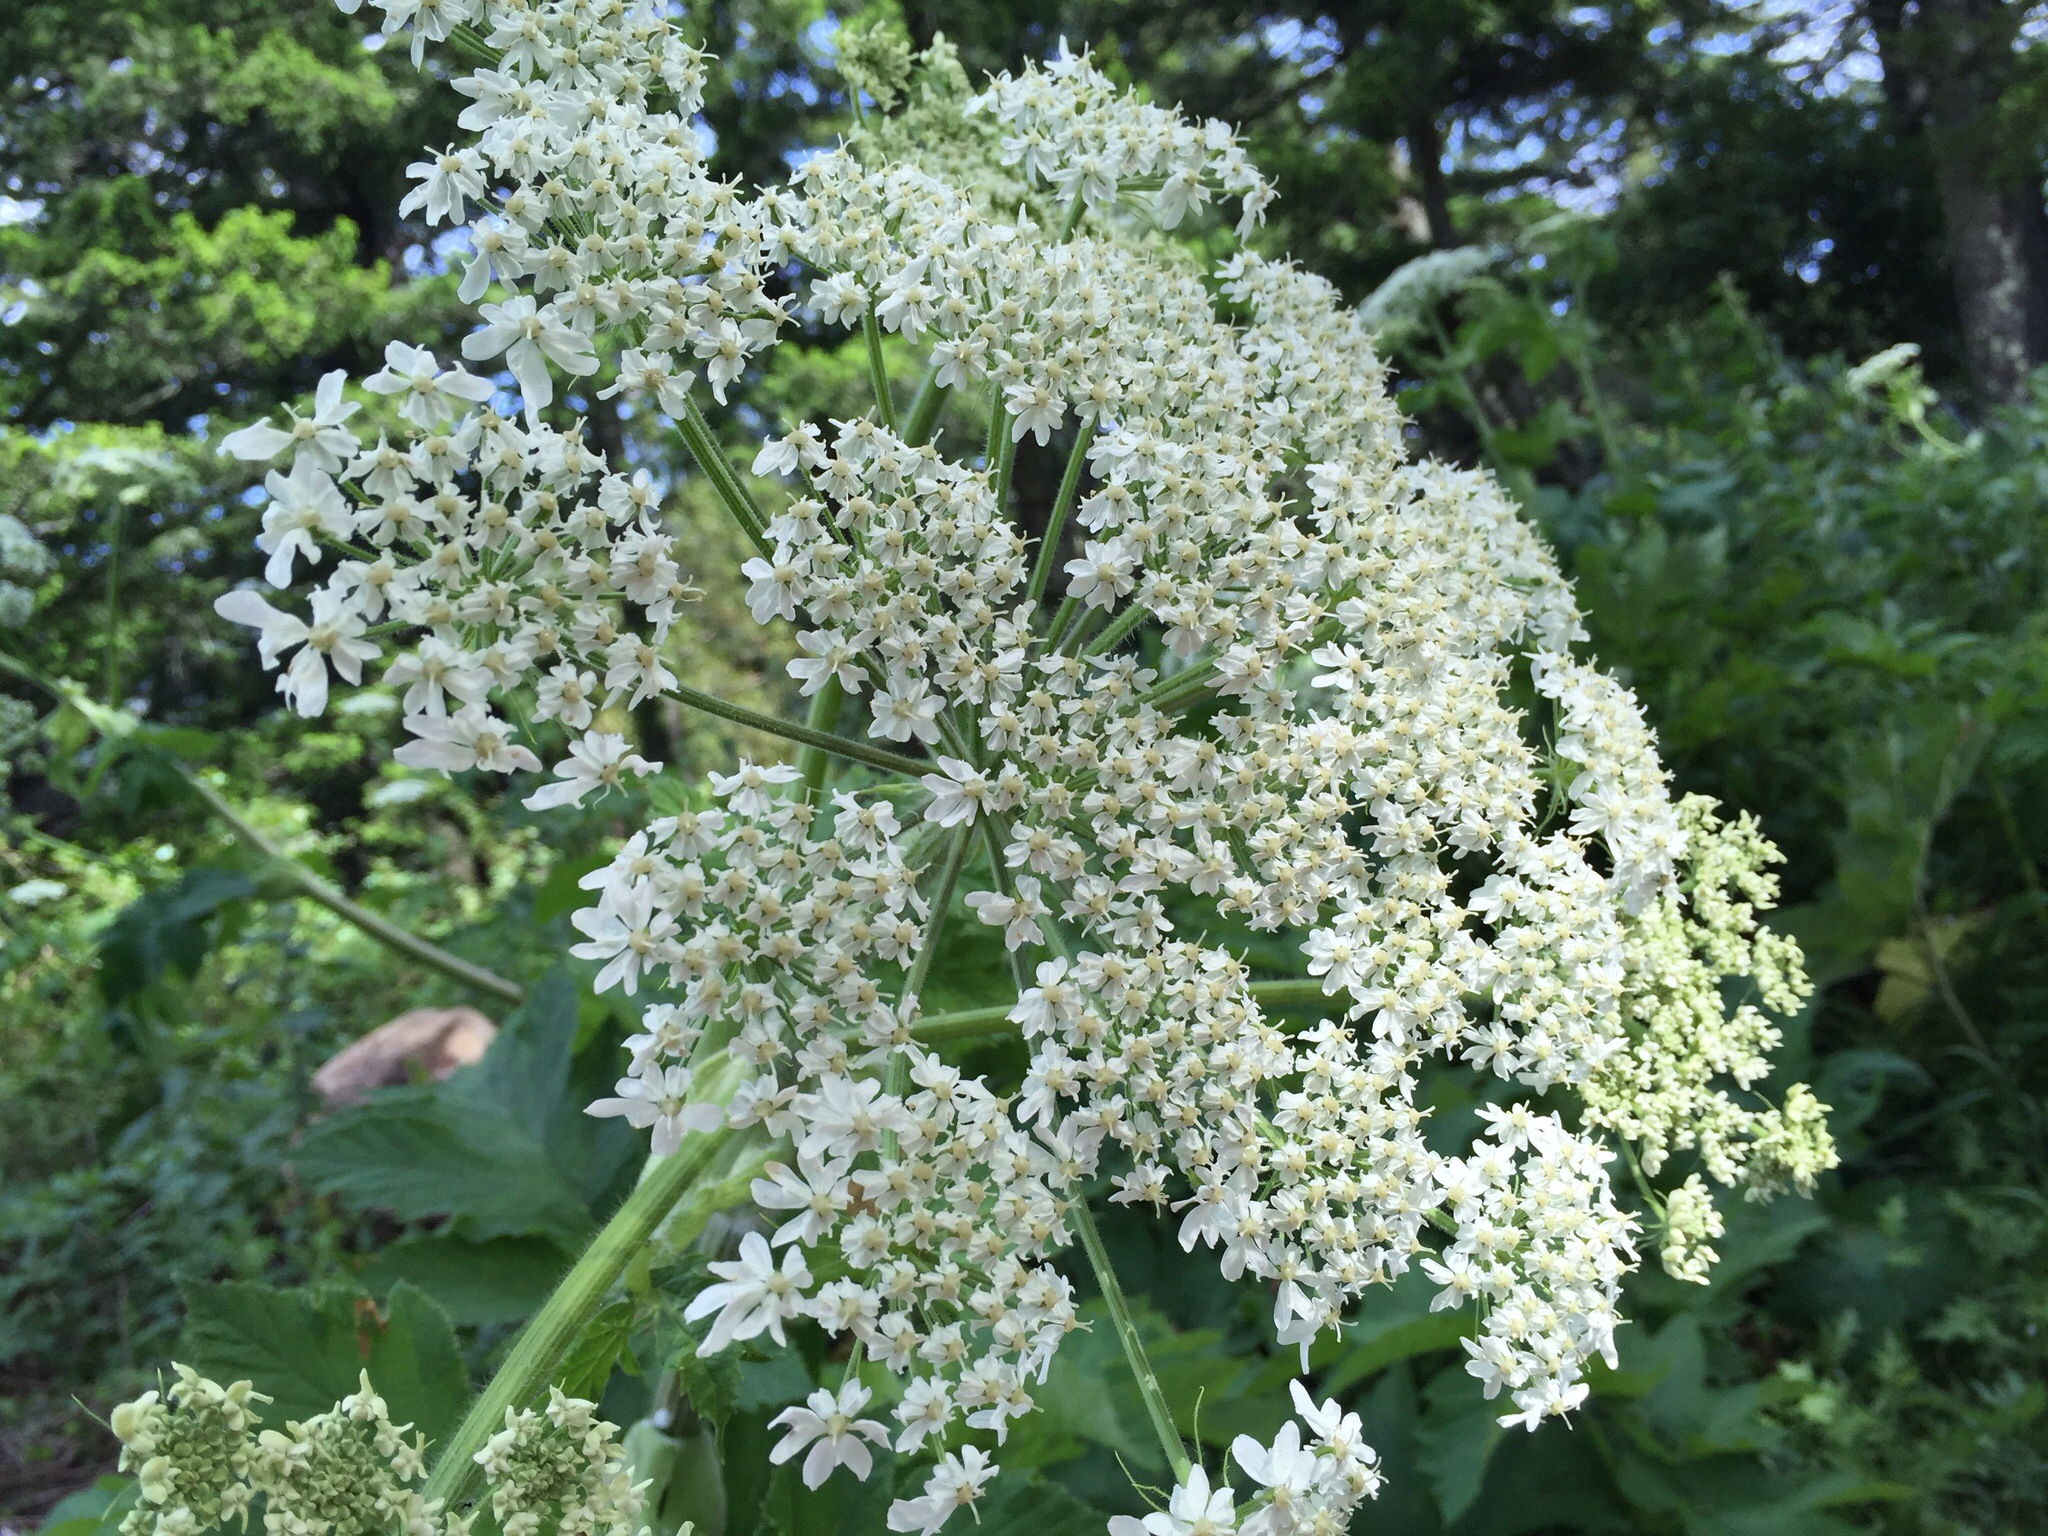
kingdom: Plantae
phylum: Tracheophyta
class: Magnoliopsida
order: Apiales
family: Apiaceae
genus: Heracleum
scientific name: Heracleum maximum
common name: American cow parsnip
